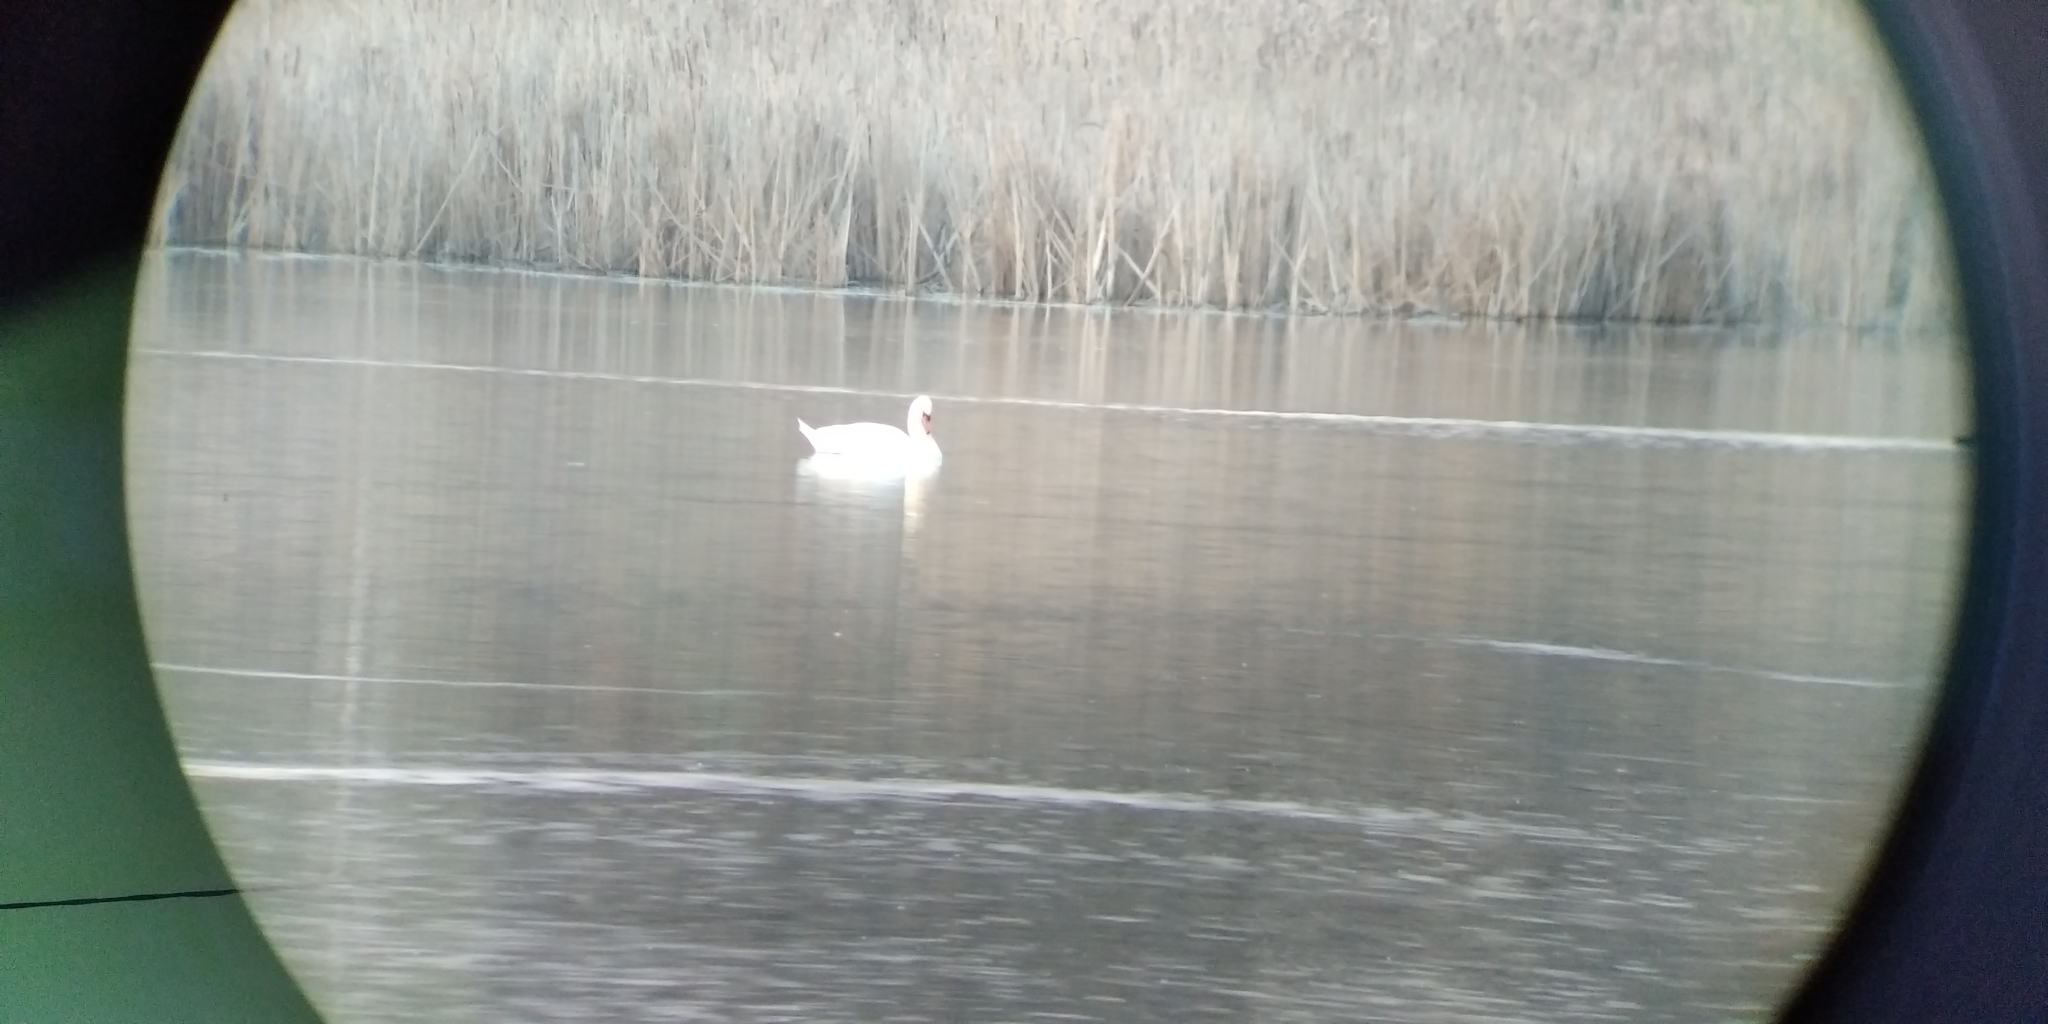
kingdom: Animalia
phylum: Chordata
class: Aves
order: Anseriformes
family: Anatidae
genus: Cygnus
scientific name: Cygnus olor
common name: Mute swan
